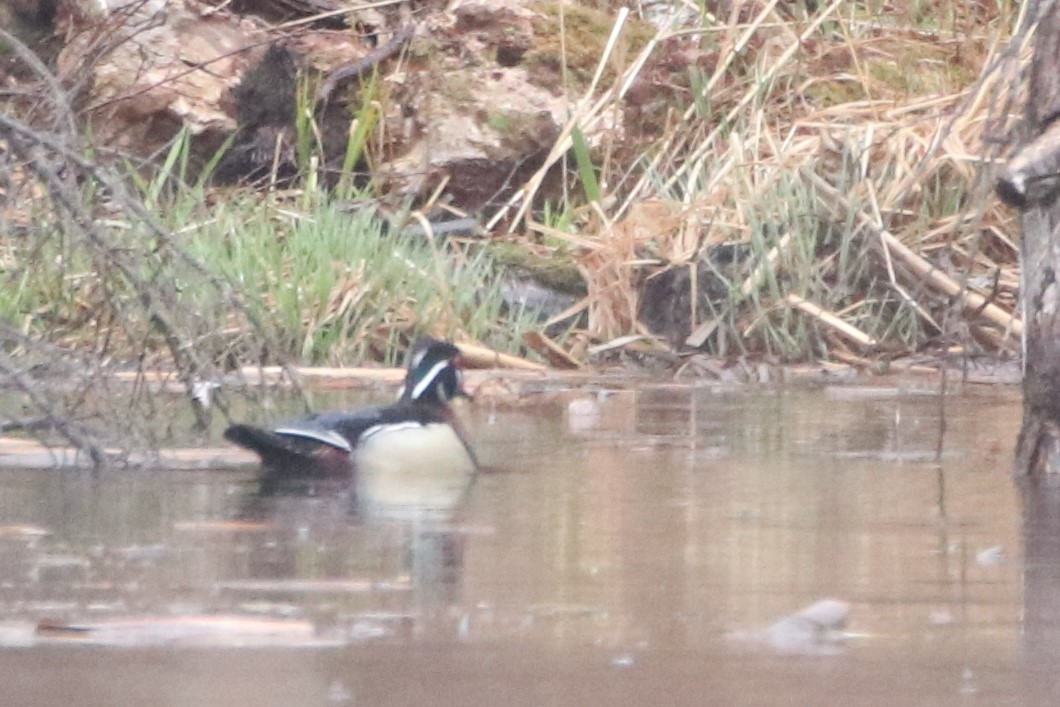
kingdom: Animalia
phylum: Chordata
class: Aves
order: Anseriformes
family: Anatidae
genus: Aix
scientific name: Aix sponsa
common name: Wood duck
